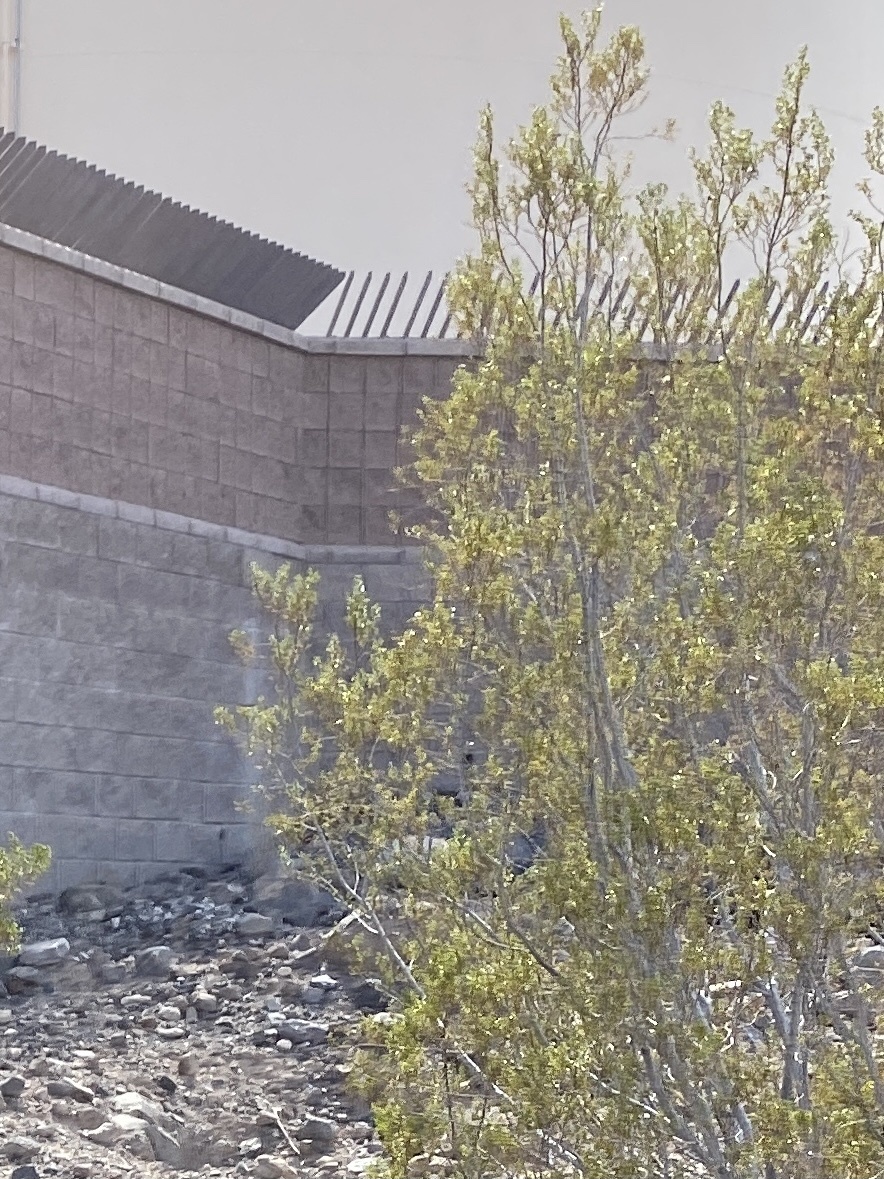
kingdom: Plantae
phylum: Tracheophyta
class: Magnoliopsida
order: Zygophyllales
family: Zygophyllaceae
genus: Larrea
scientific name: Larrea tridentata
